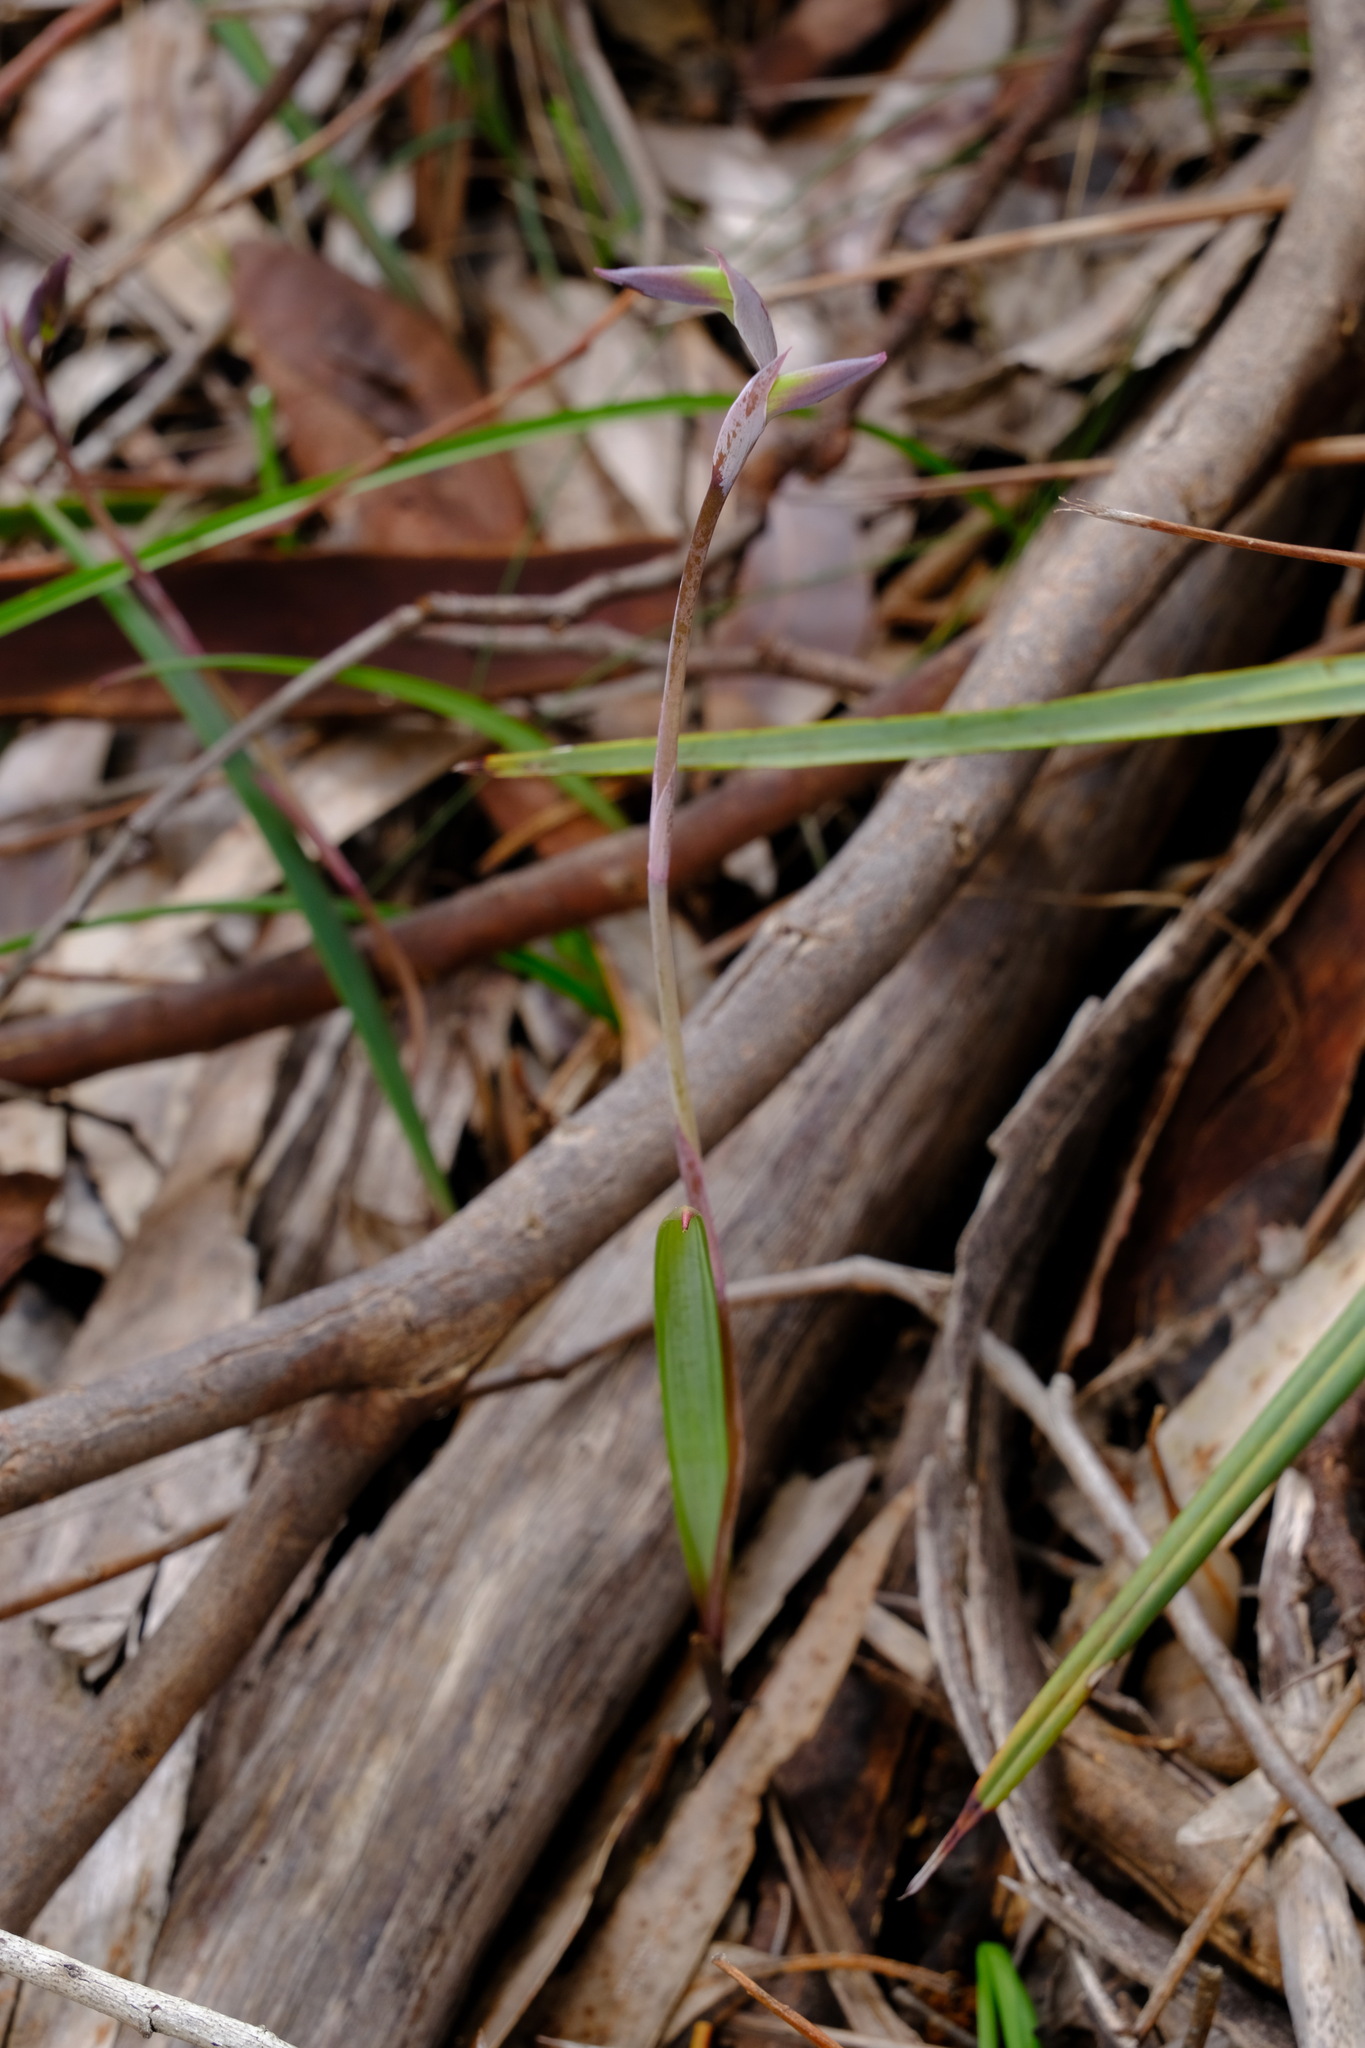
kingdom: Plantae
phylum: Tracheophyta
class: Liliopsida
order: Asparagales
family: Orchidaceae
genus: Lyperanthus
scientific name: Lyperanthus suaveolens
